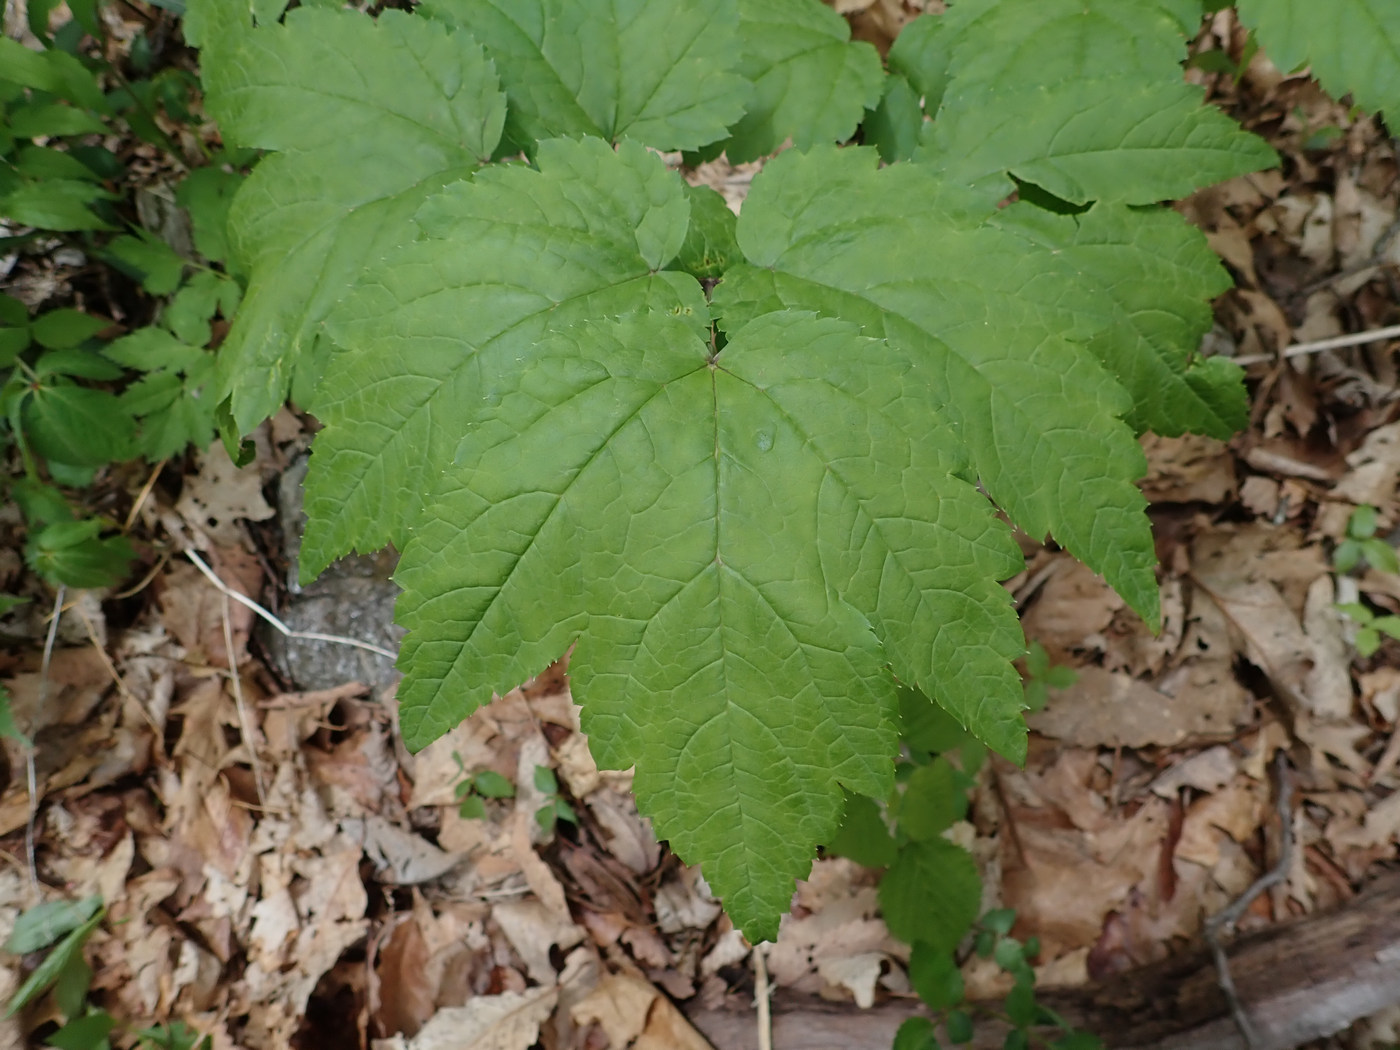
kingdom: Plantae
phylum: Tracheophyta
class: Magnoliopsida
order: Ranunculales
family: Ranunculaceae
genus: Actaea
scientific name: Actaea racemosa
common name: Black cohosh
